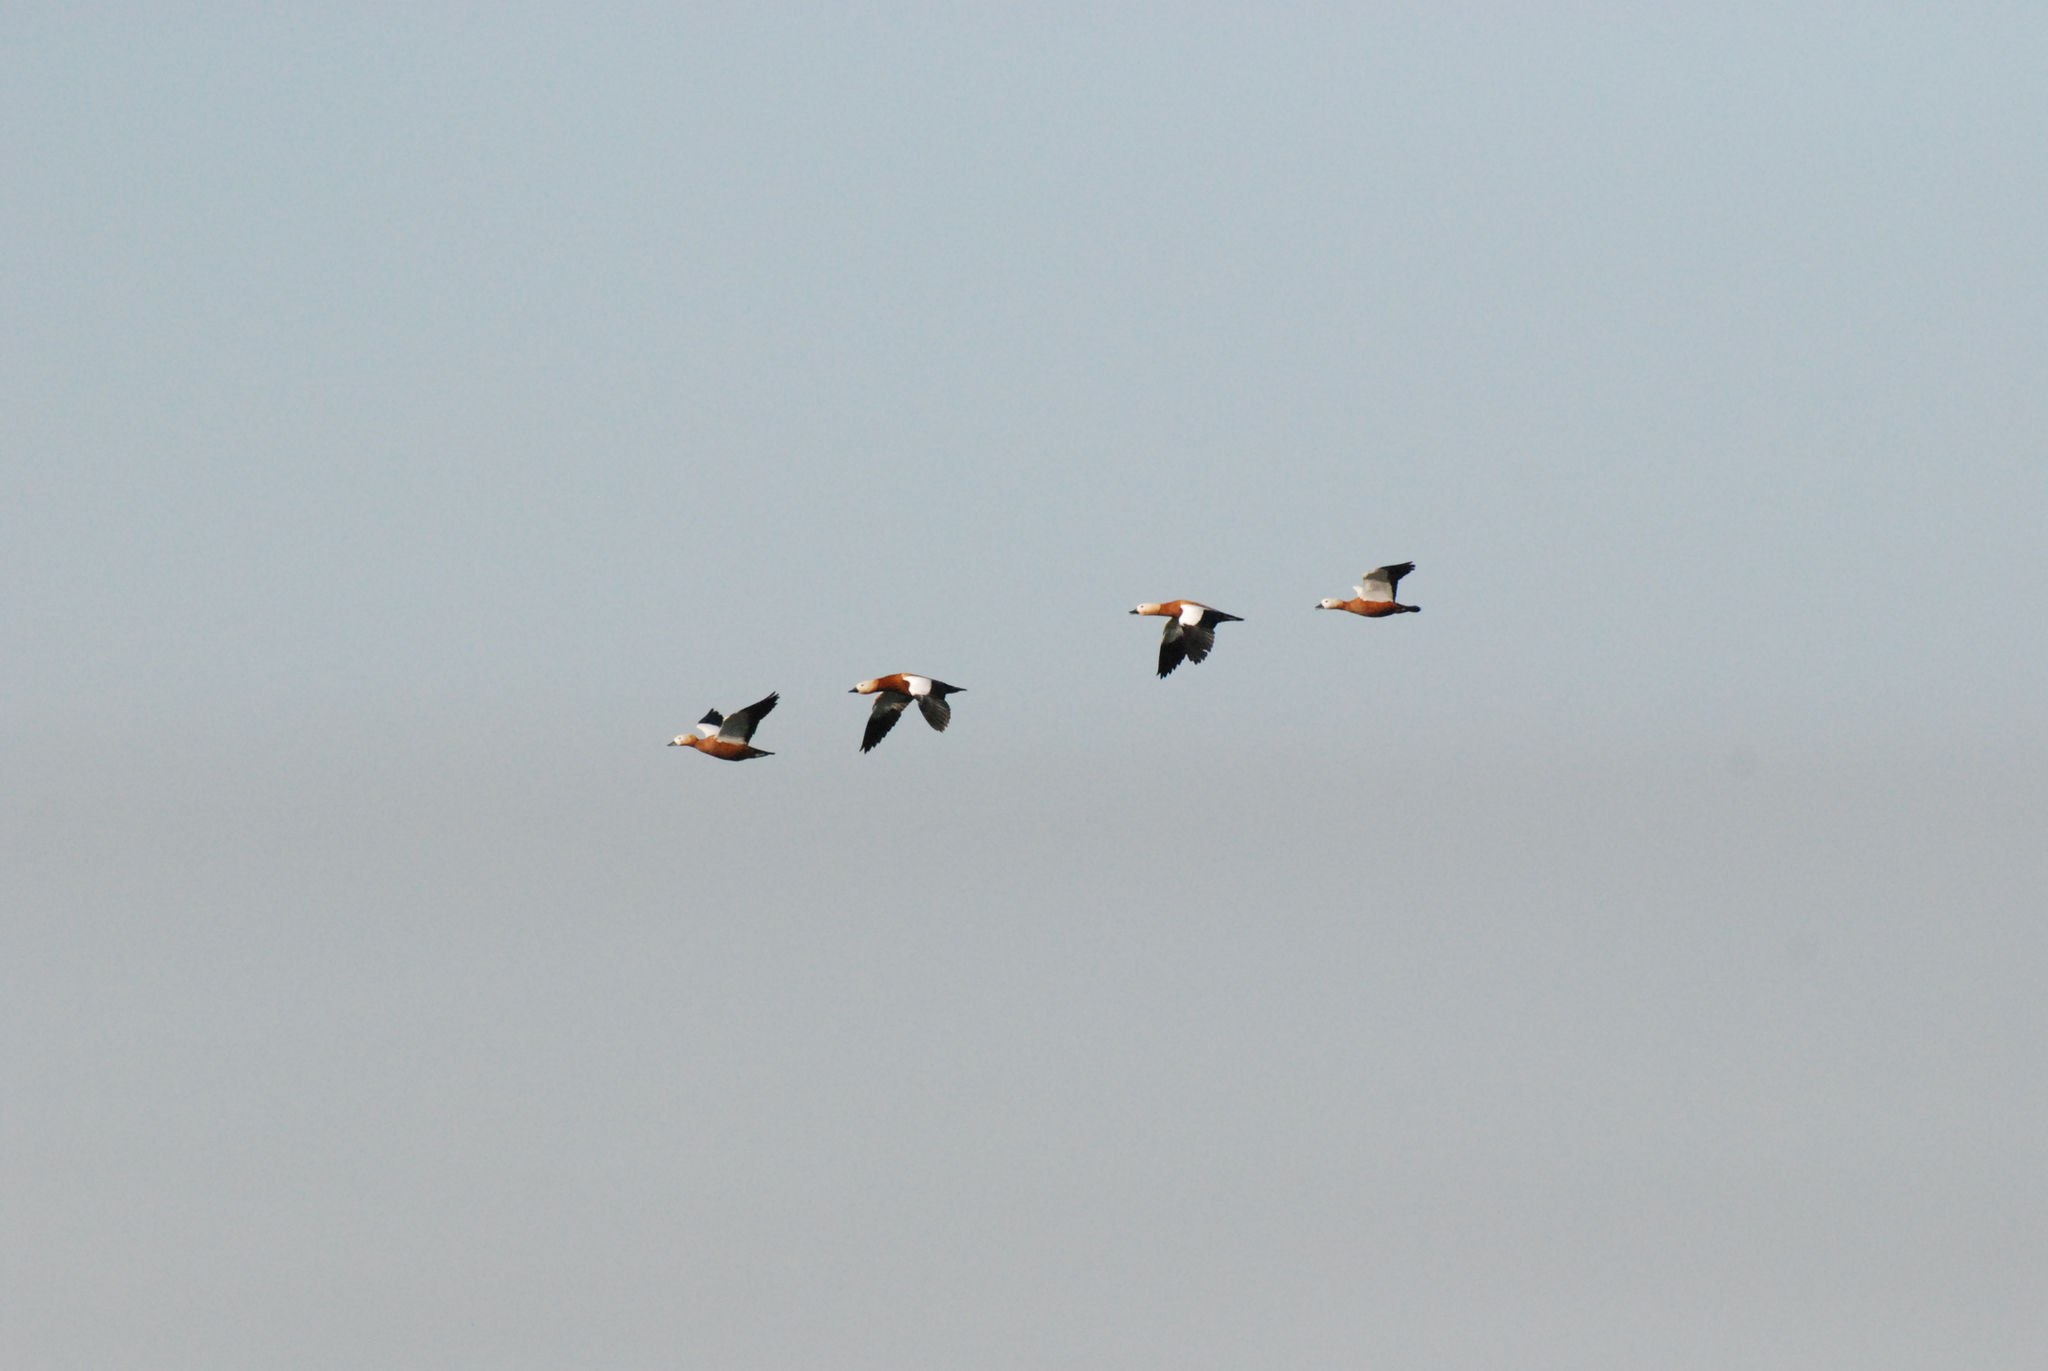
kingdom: Animalia
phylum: Chordata
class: Aves
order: Anseriformes
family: Anatidae
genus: Tadorna
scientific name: Tadorna ferruginea
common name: Ruddy shelduck
